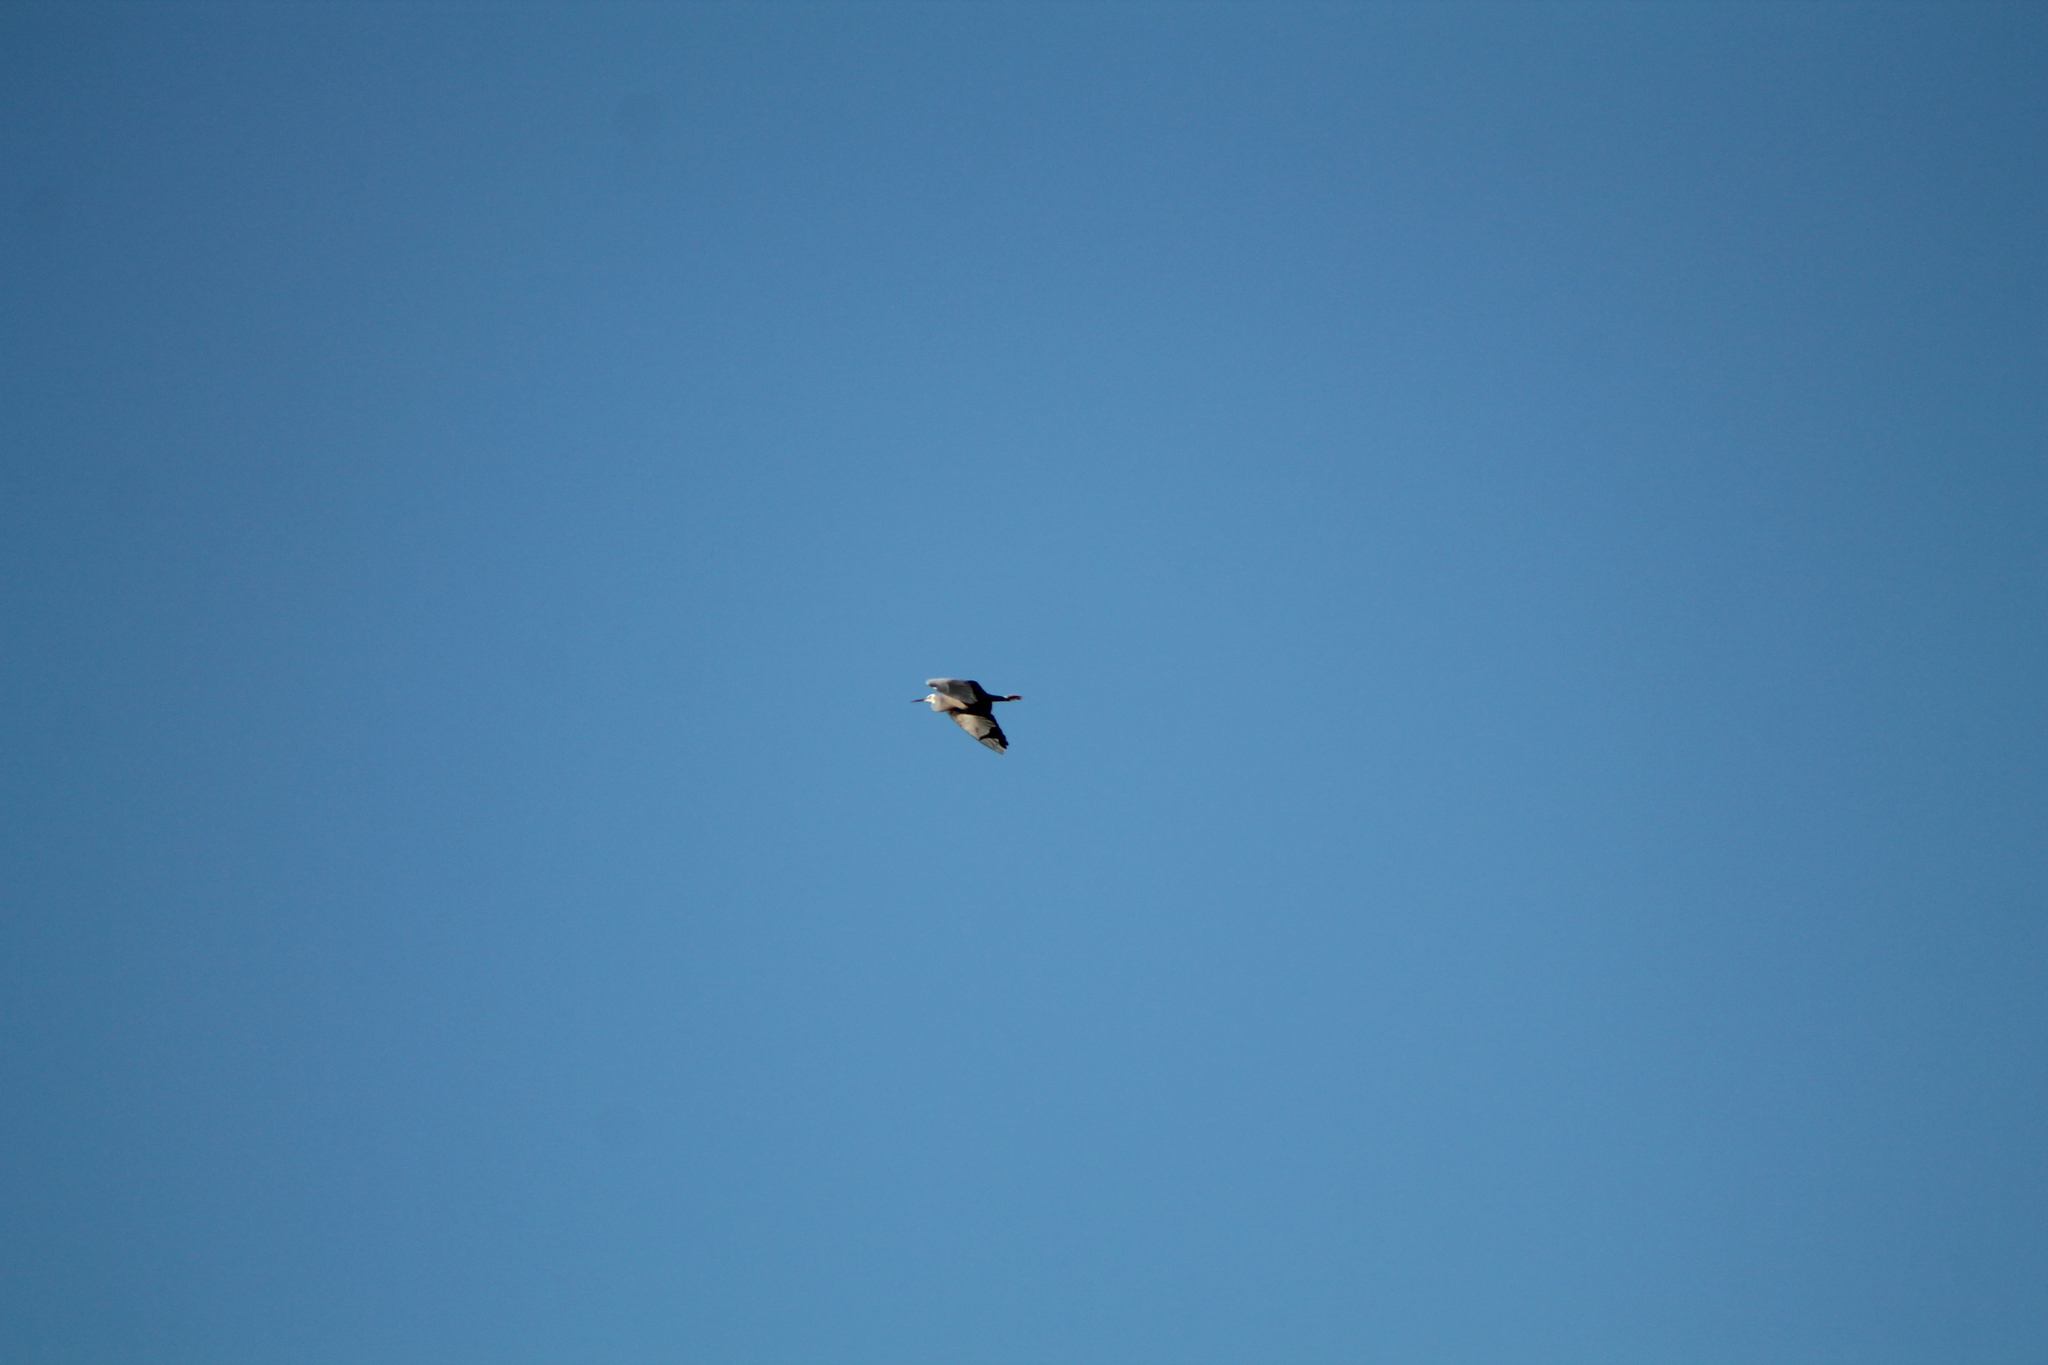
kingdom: Animalia
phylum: Chordata
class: Aves
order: Pelecaniformes
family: Ardeidae
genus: Egretta
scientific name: Egretta novaehollandiae
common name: White-faced heron
